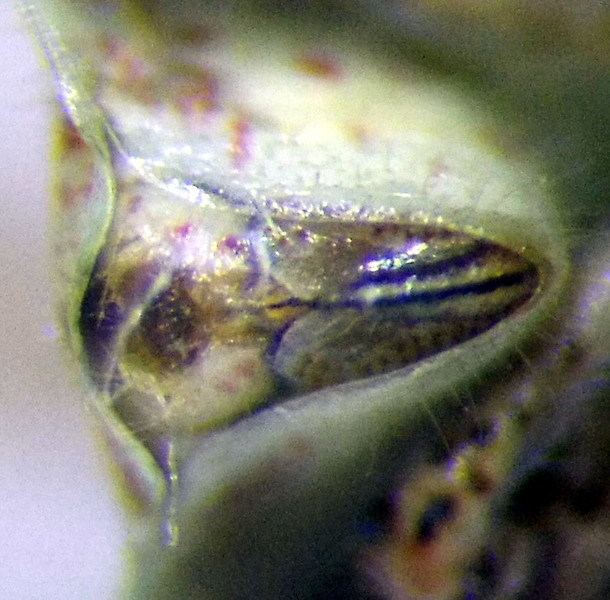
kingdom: Animalia
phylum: Arthropoda
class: Insecta
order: Hemiptera
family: Rhopalidae
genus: Stictopleurus
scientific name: Stictopleurus punctatonervosus
